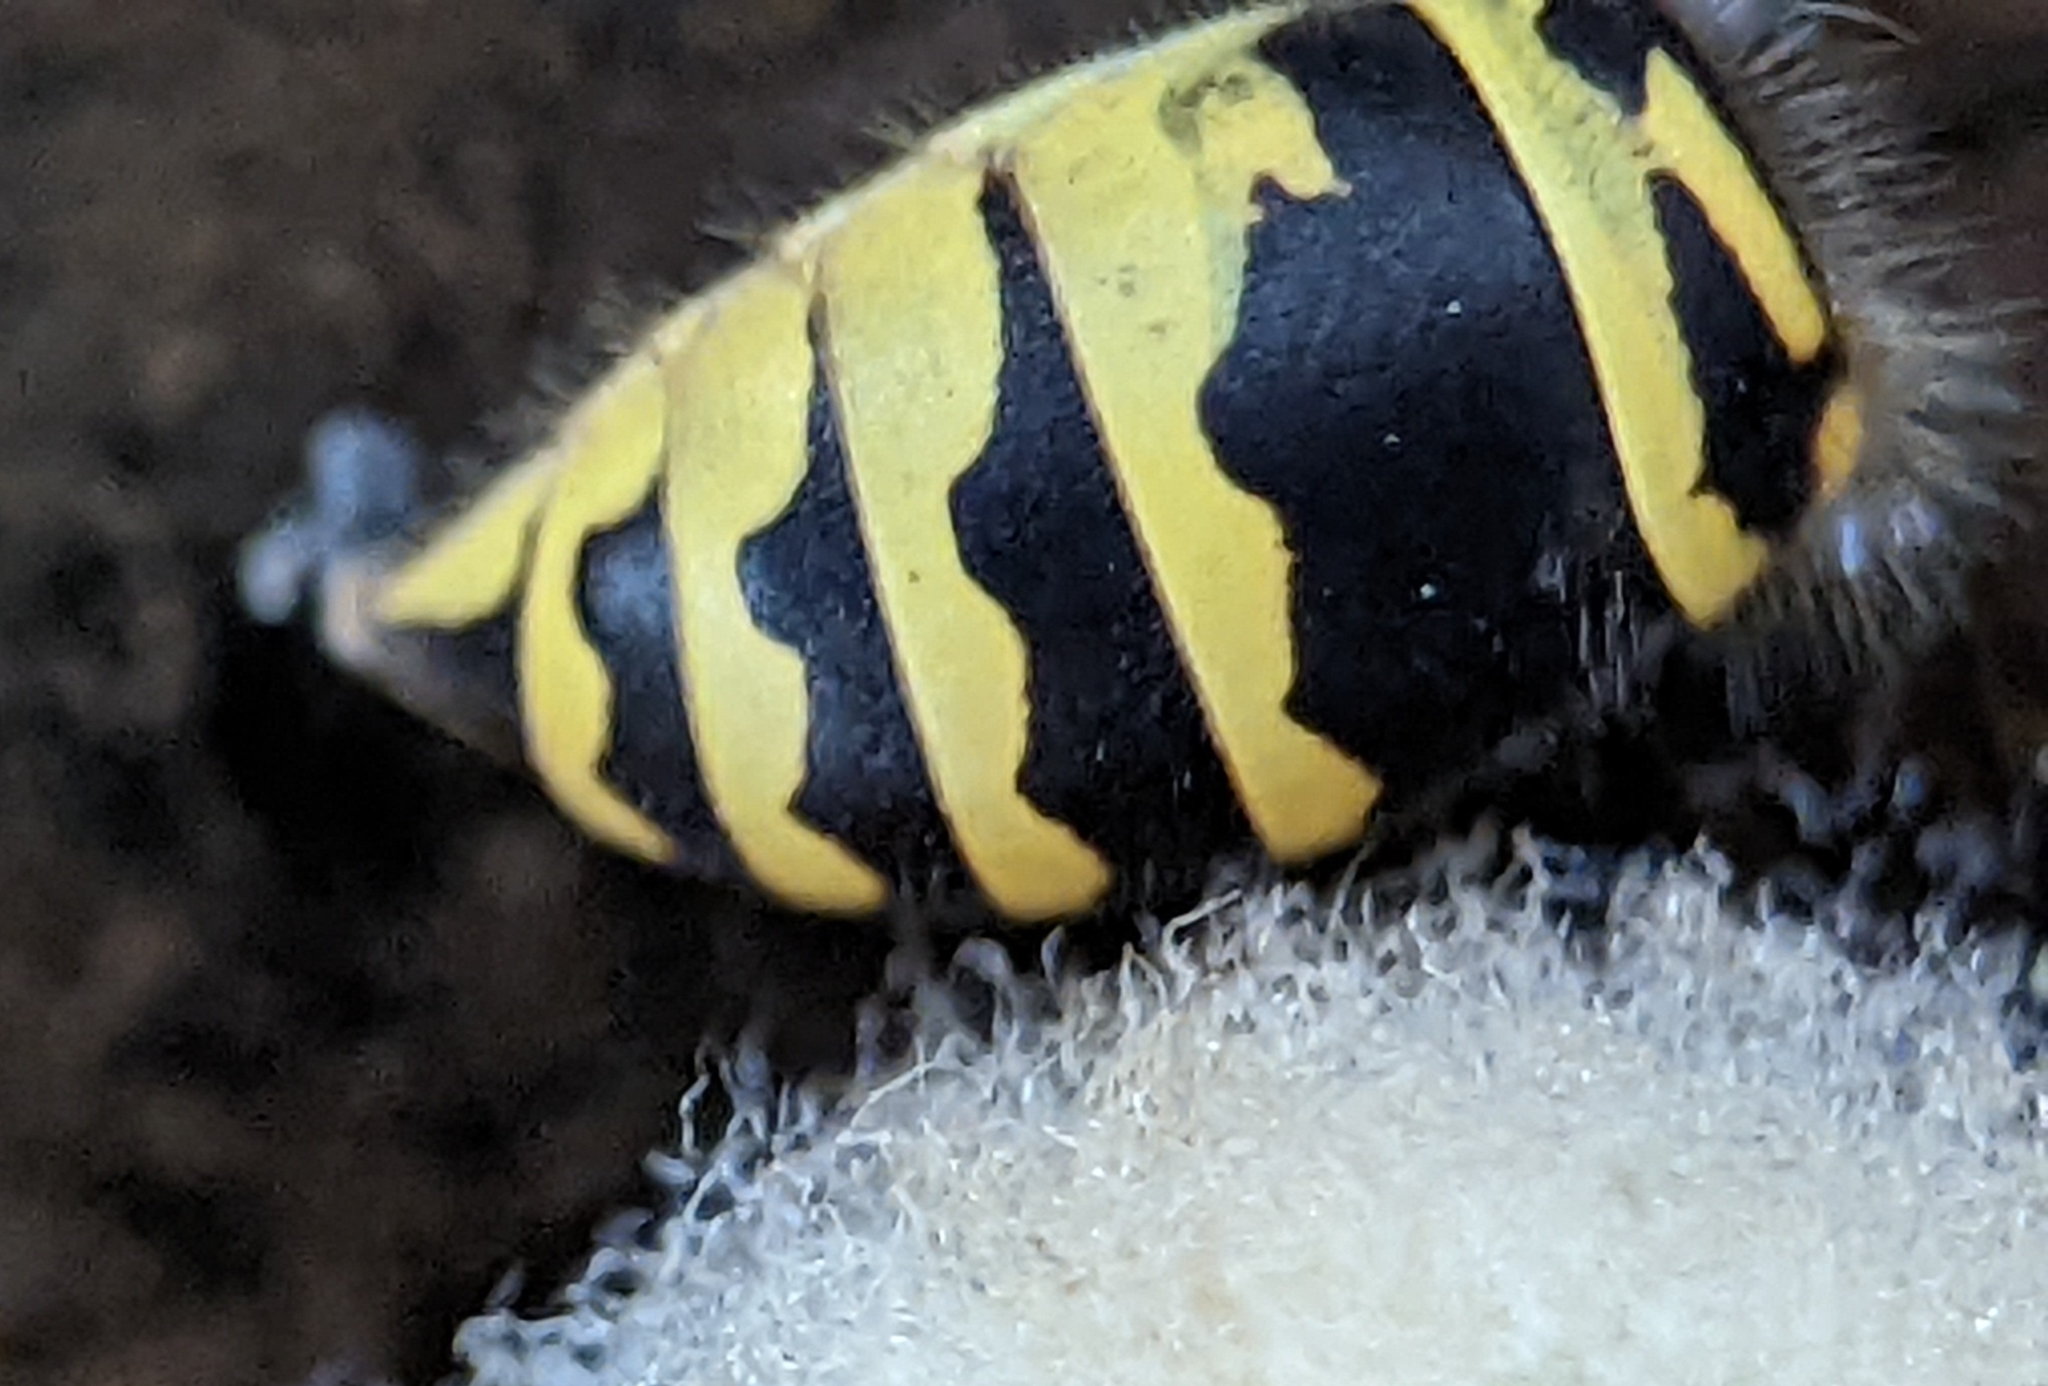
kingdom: Animalia
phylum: Arthropoda
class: Insecta
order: Hymenoptera
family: Vespidae
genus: Vespula
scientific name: Vespula maculifrons
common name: Eastern yellowjacket
